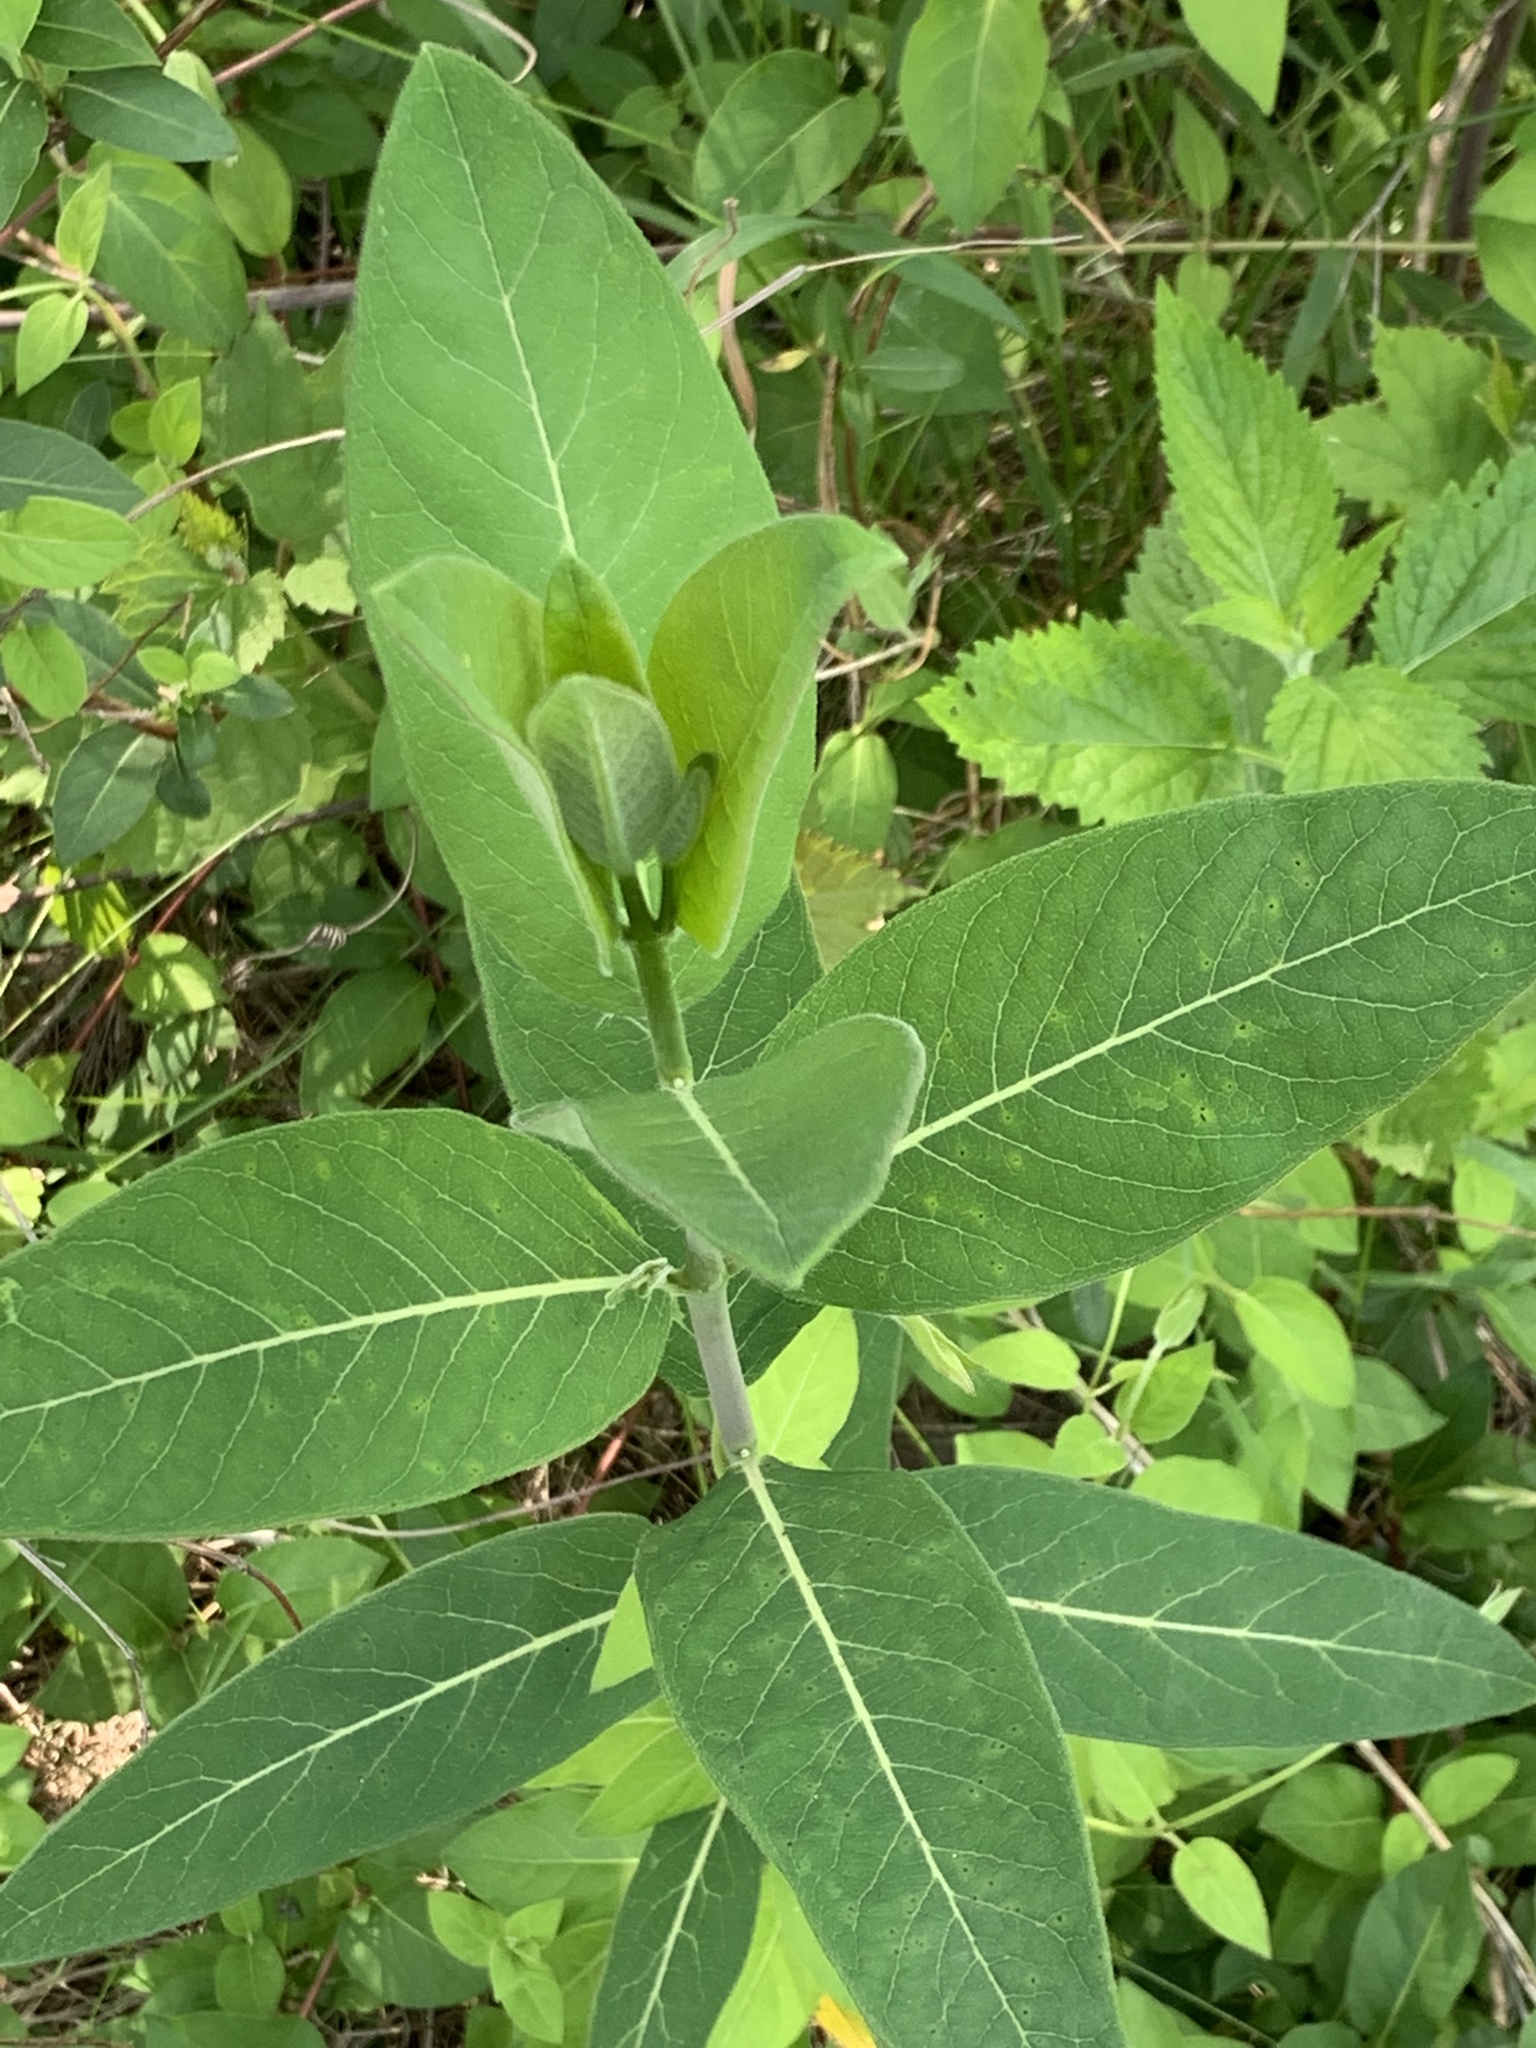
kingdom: Plantae
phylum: Tracheophyta
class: Magnoliopsida
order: Gentianales
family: Apocynaceae
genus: Apocynum
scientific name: Apocynum cannabinum
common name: Hemp dogbane
